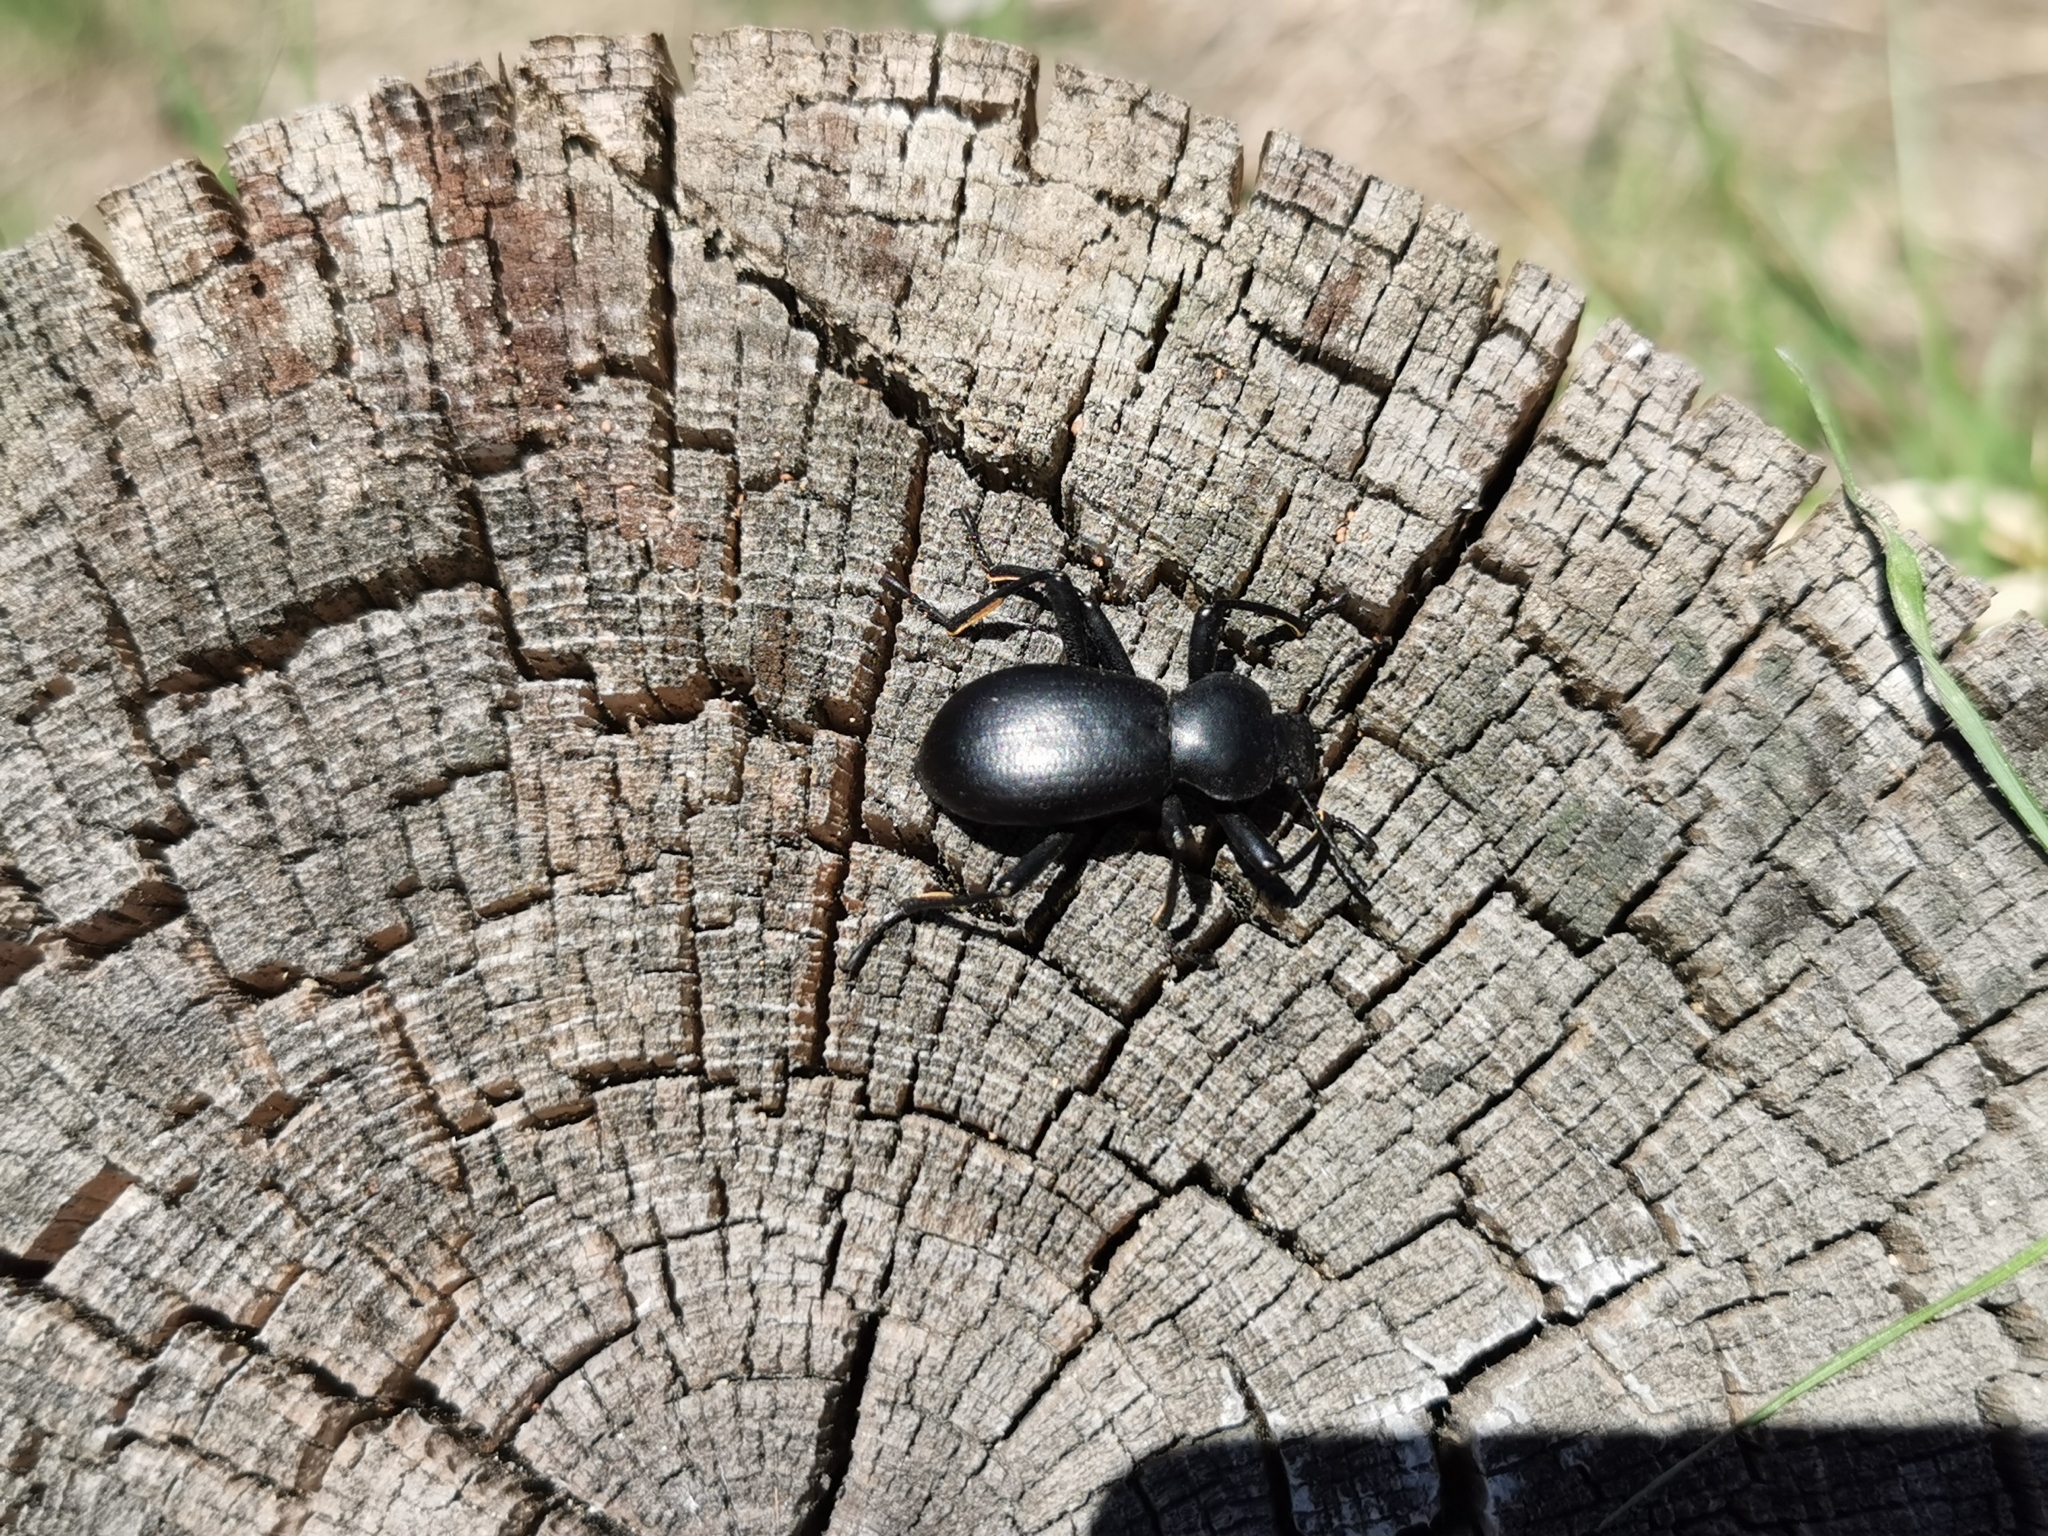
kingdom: Animalia
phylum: Arthropoda
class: Insecta
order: Coleoptera
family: Tenebrionidae
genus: Coelocnemis
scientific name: Coelocnemis dilaticollis
